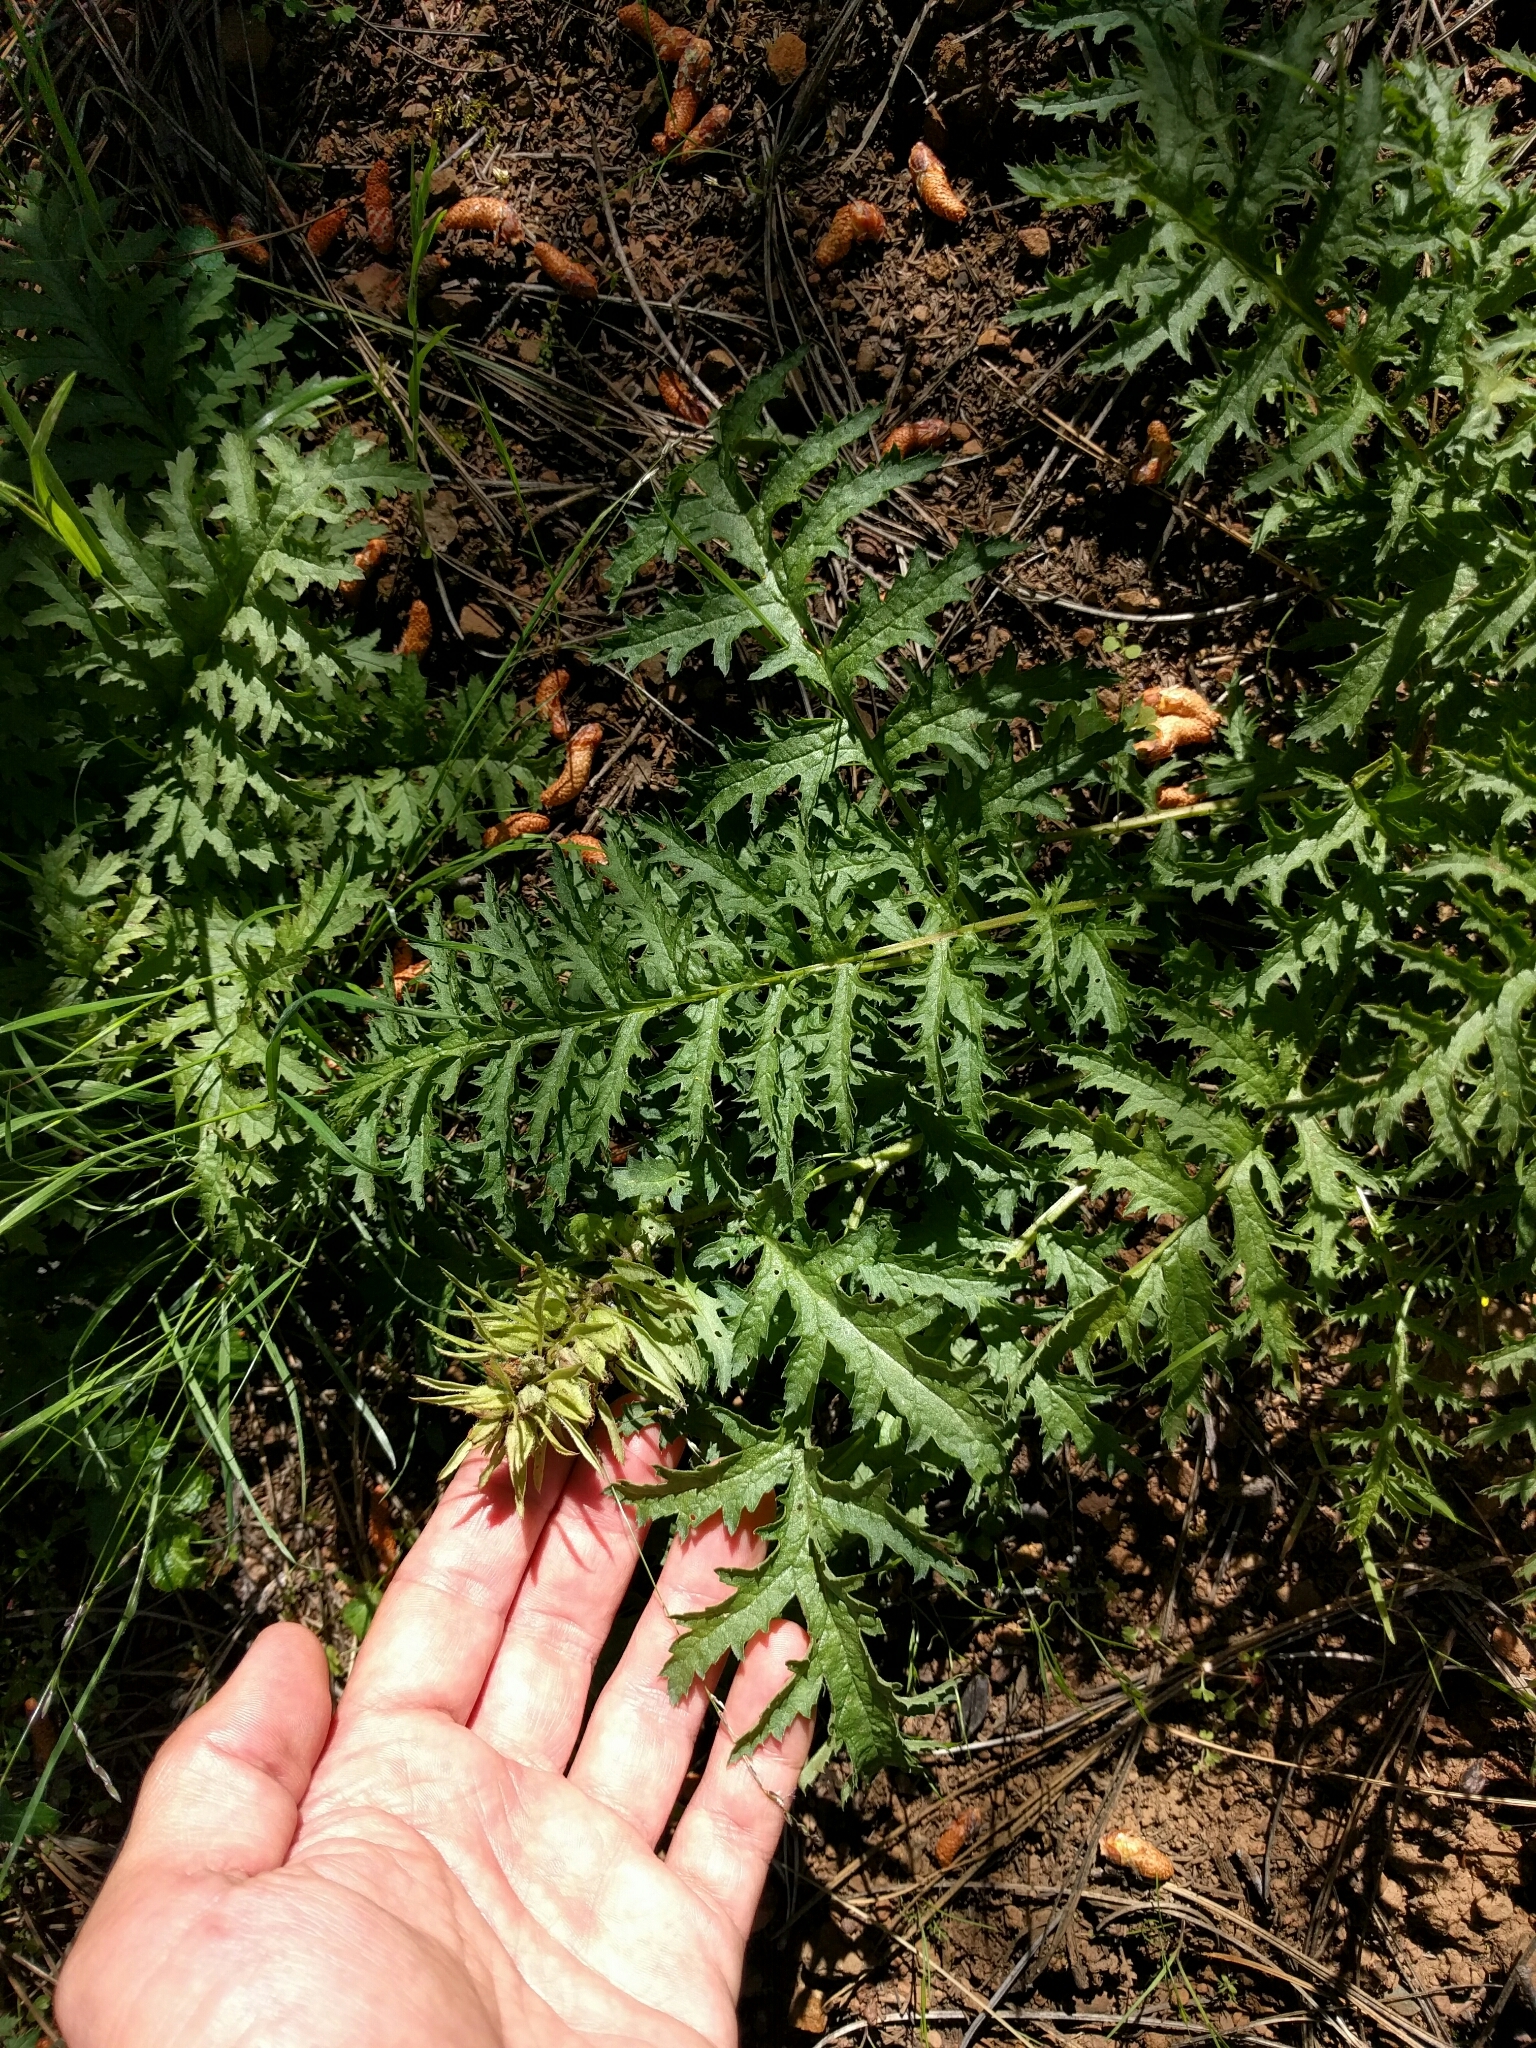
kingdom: Plantae
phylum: Tracheophyta
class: Magnoliopsida
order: Lamiales
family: Orobanchaceae
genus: Pedicularis
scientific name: Pedicularis densiflora
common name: Indian warrior
